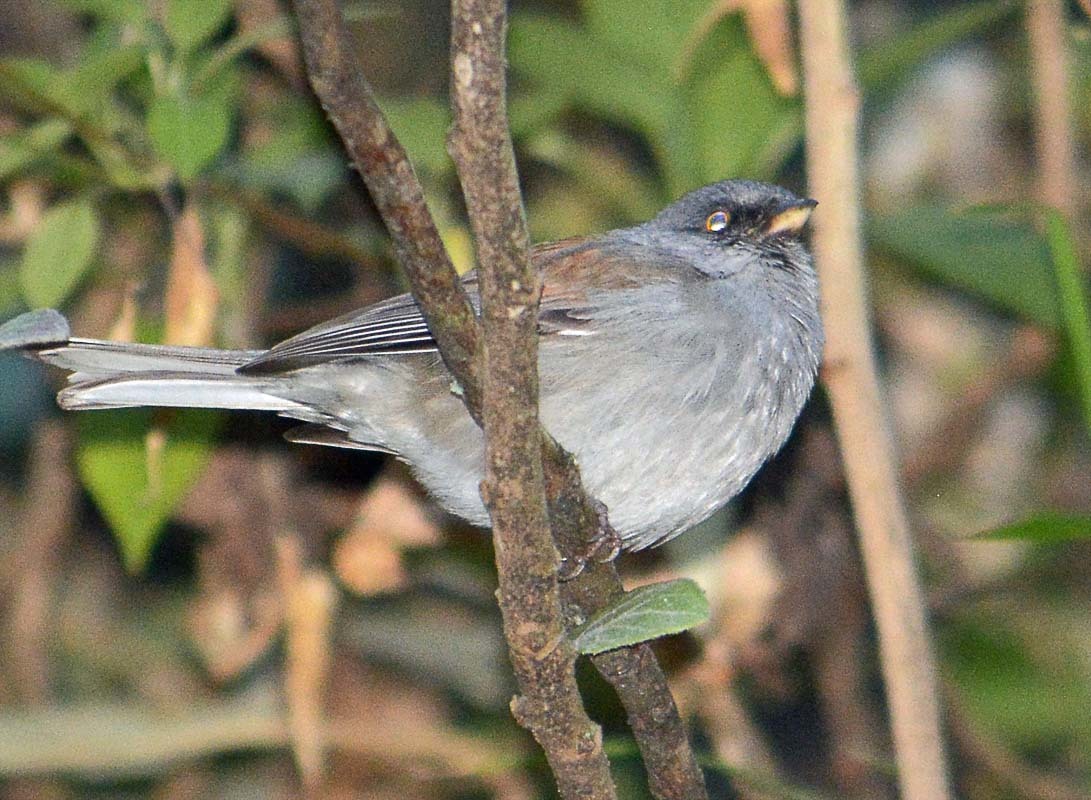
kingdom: Animalia
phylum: Chordata
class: Aves
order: Passeriformes
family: Passerellidae
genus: Junco
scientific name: Junco phaeonotus
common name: Yellow-eyed junco
